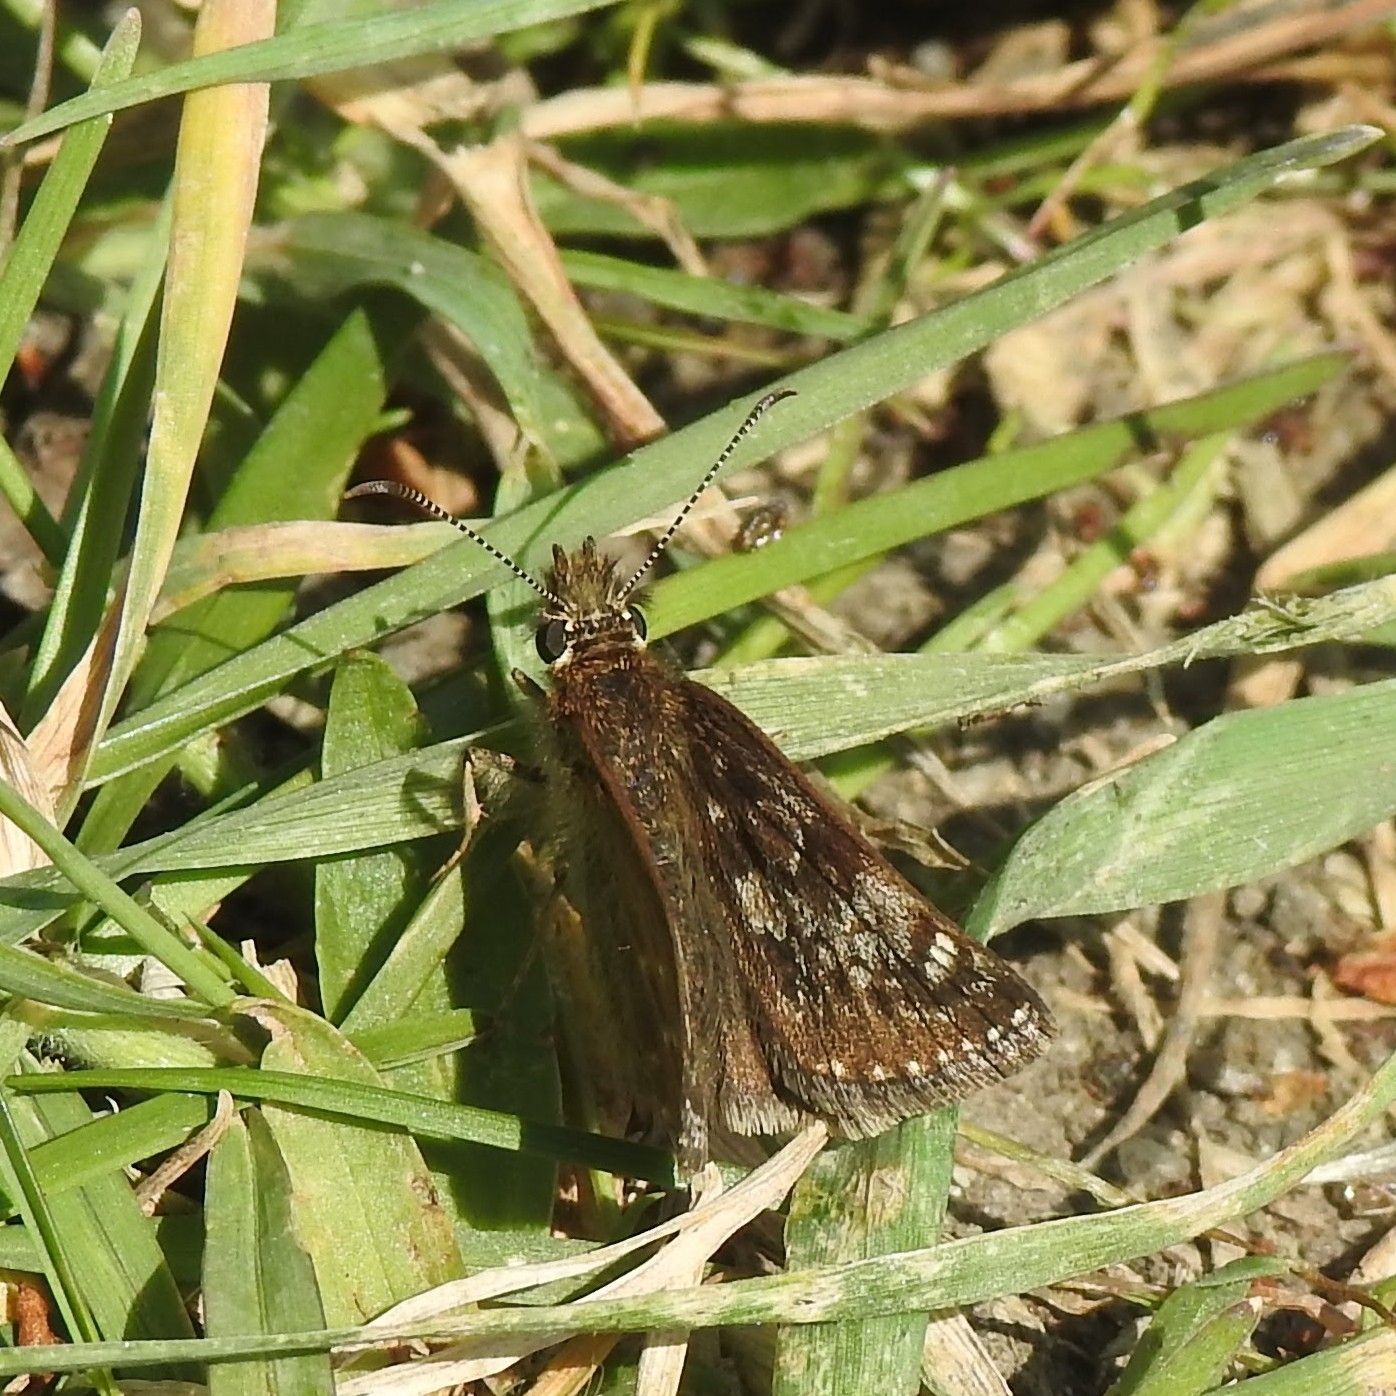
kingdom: Animalia
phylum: Arthropoda
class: Insecta
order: Lepidoptera
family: Hesperiidae
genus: Erynnis
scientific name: Erynnis tages
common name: Dingy skipper
